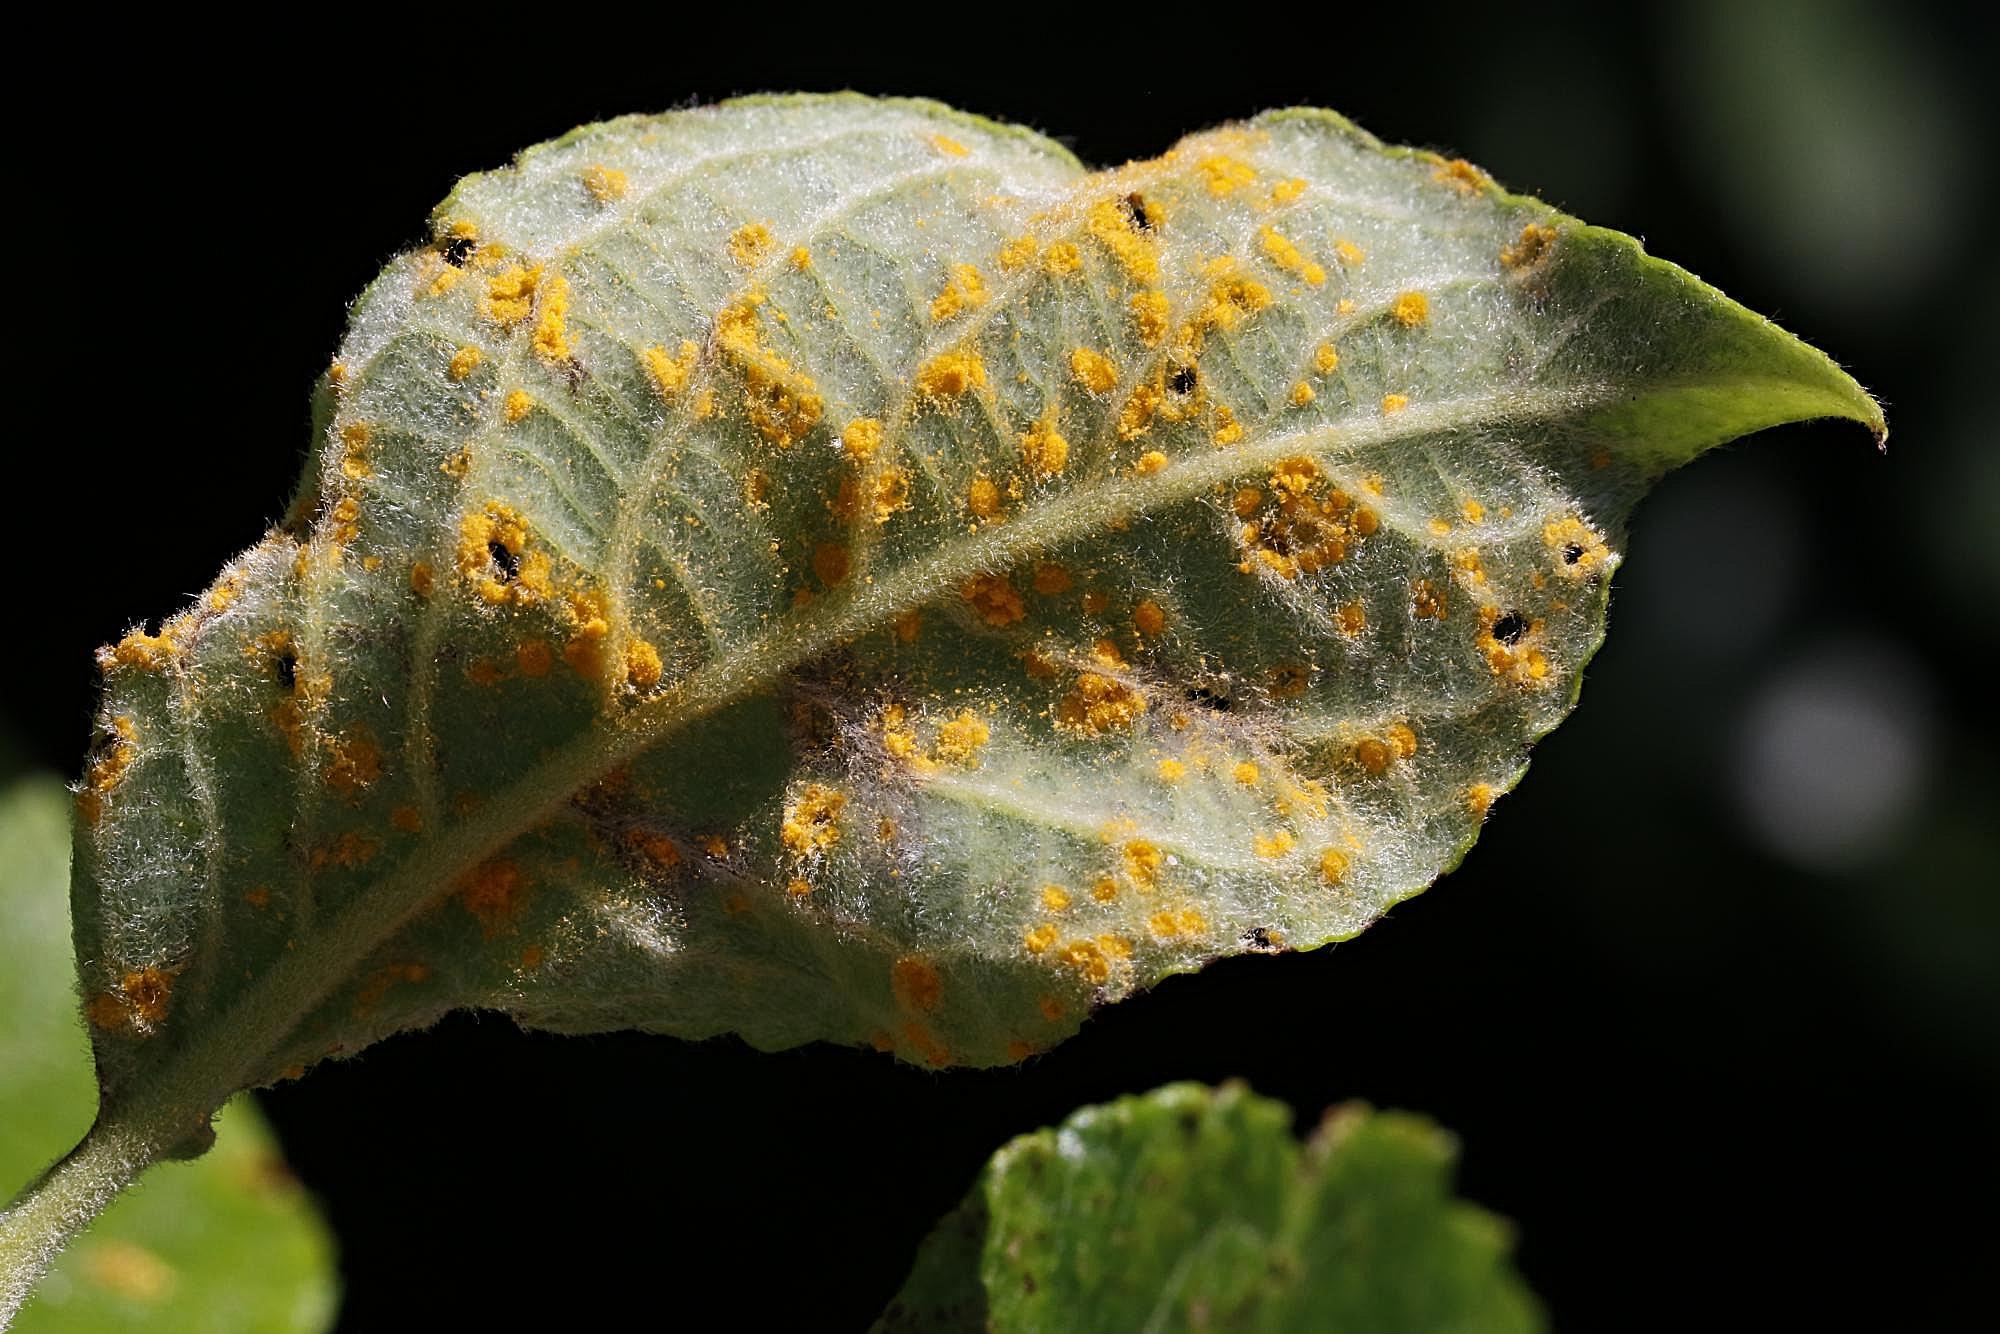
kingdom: Fungi
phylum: Basidiomycota
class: Pucciniomycetes
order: Pucciniales
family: Melampsoraceae
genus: Melampsora
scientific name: Melampsora caprearum
